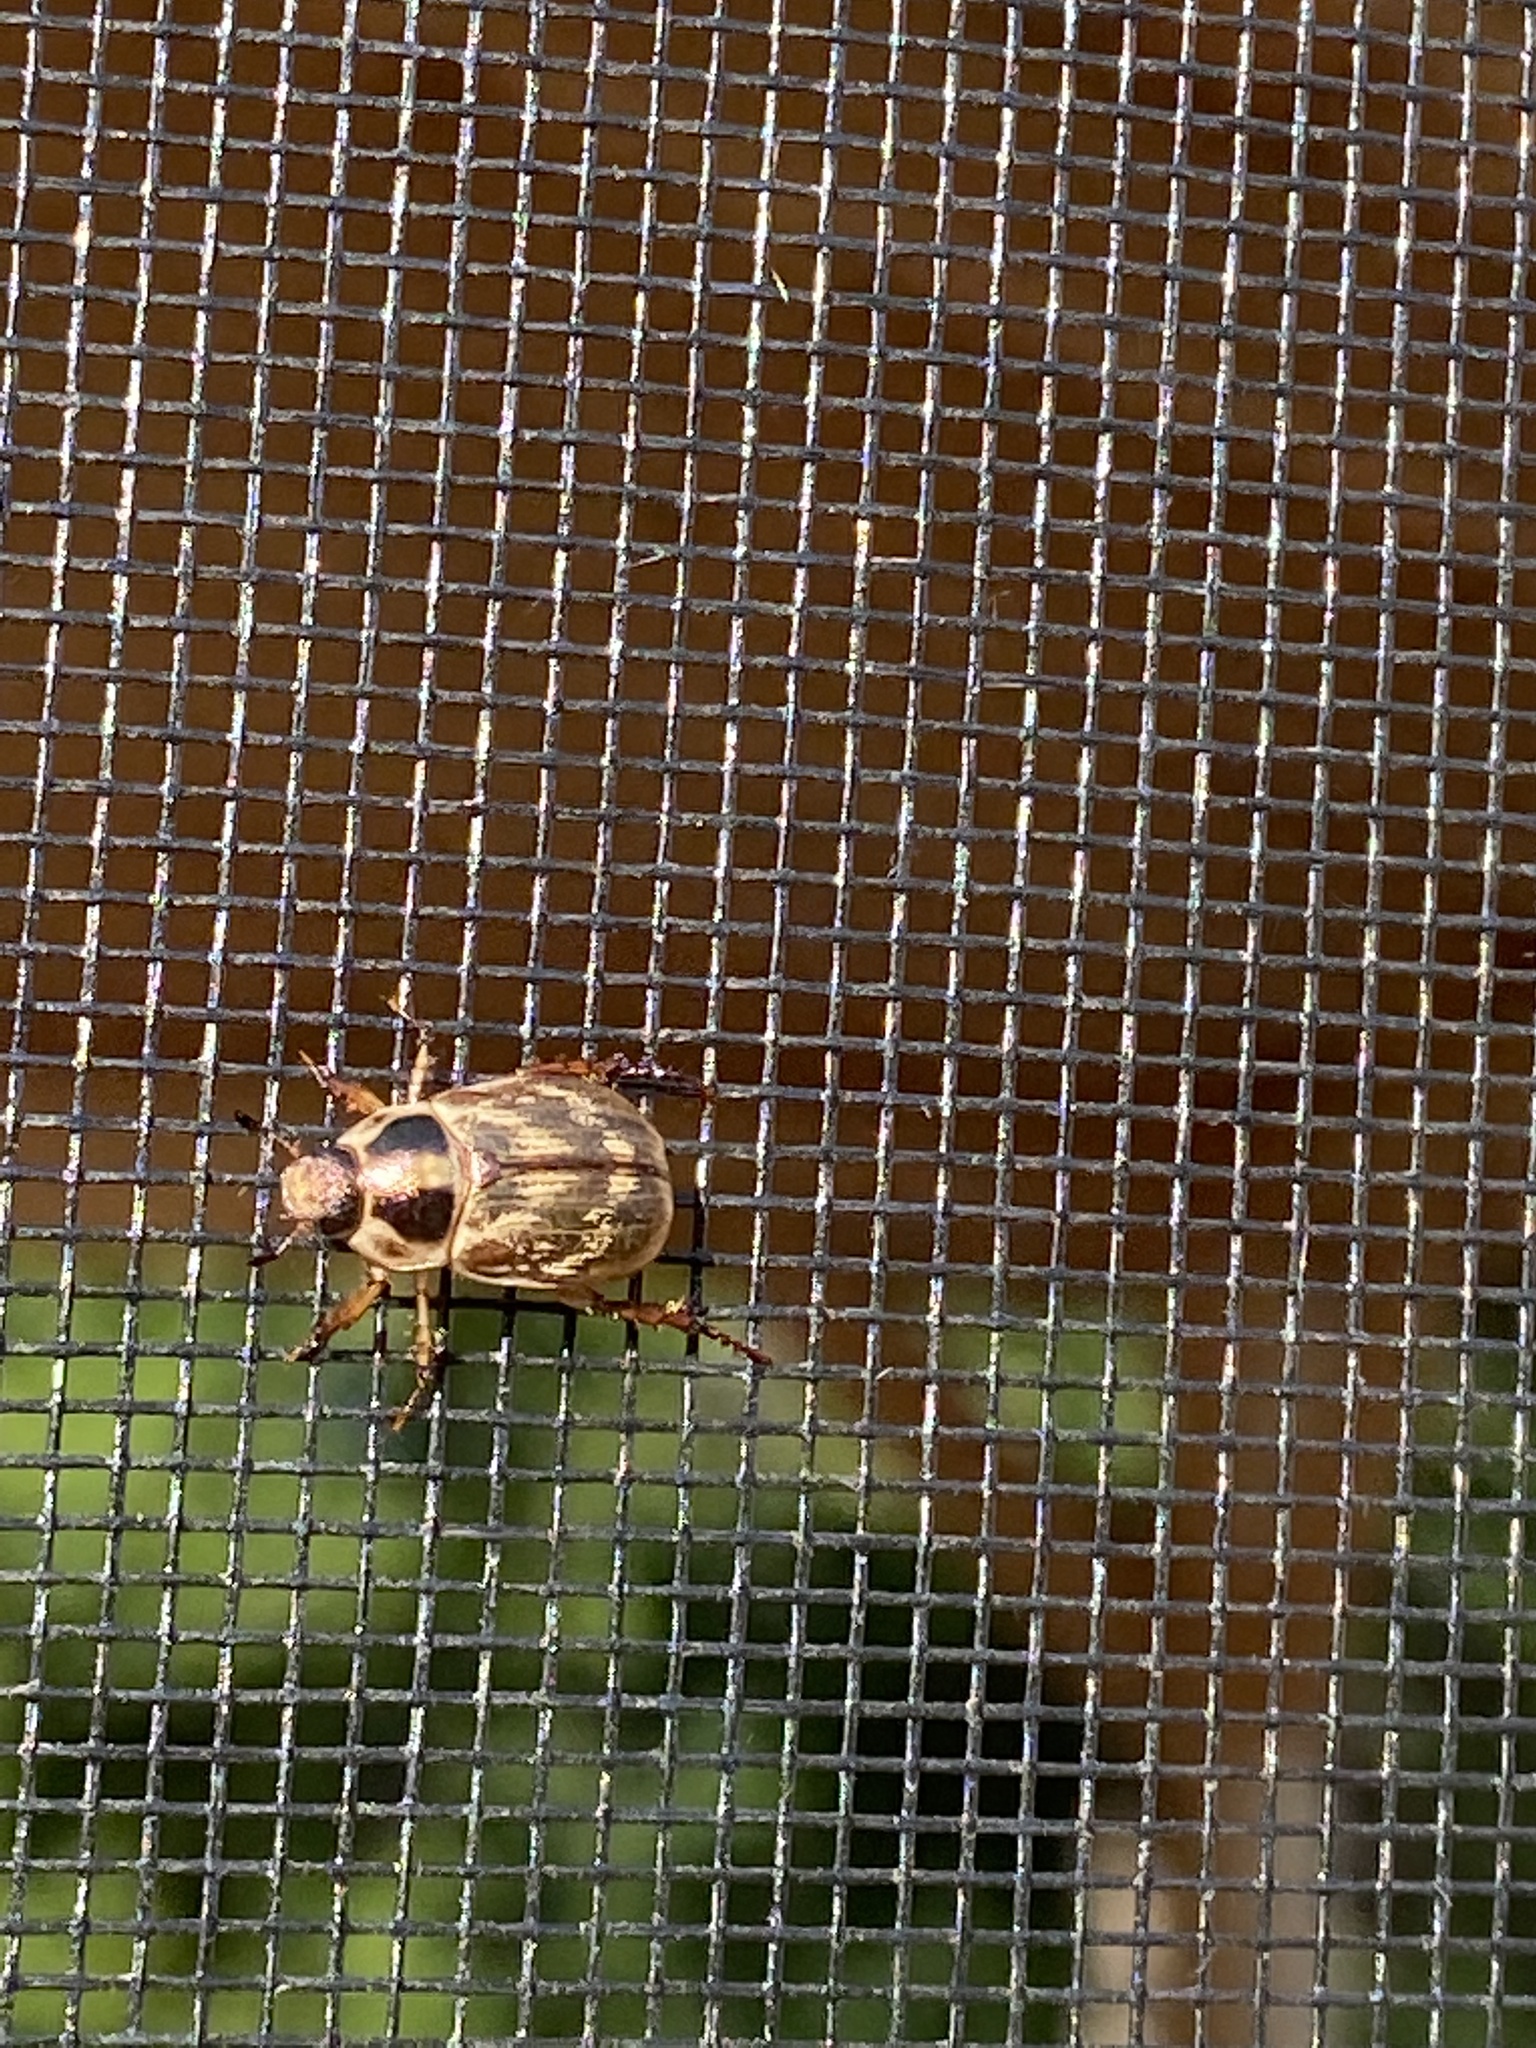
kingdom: Animalia
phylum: Arthropoda
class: Insecta
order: Coleoptera
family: Scarabaeidae
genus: Exomala
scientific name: Exomala orientalis
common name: Oriental beetle
